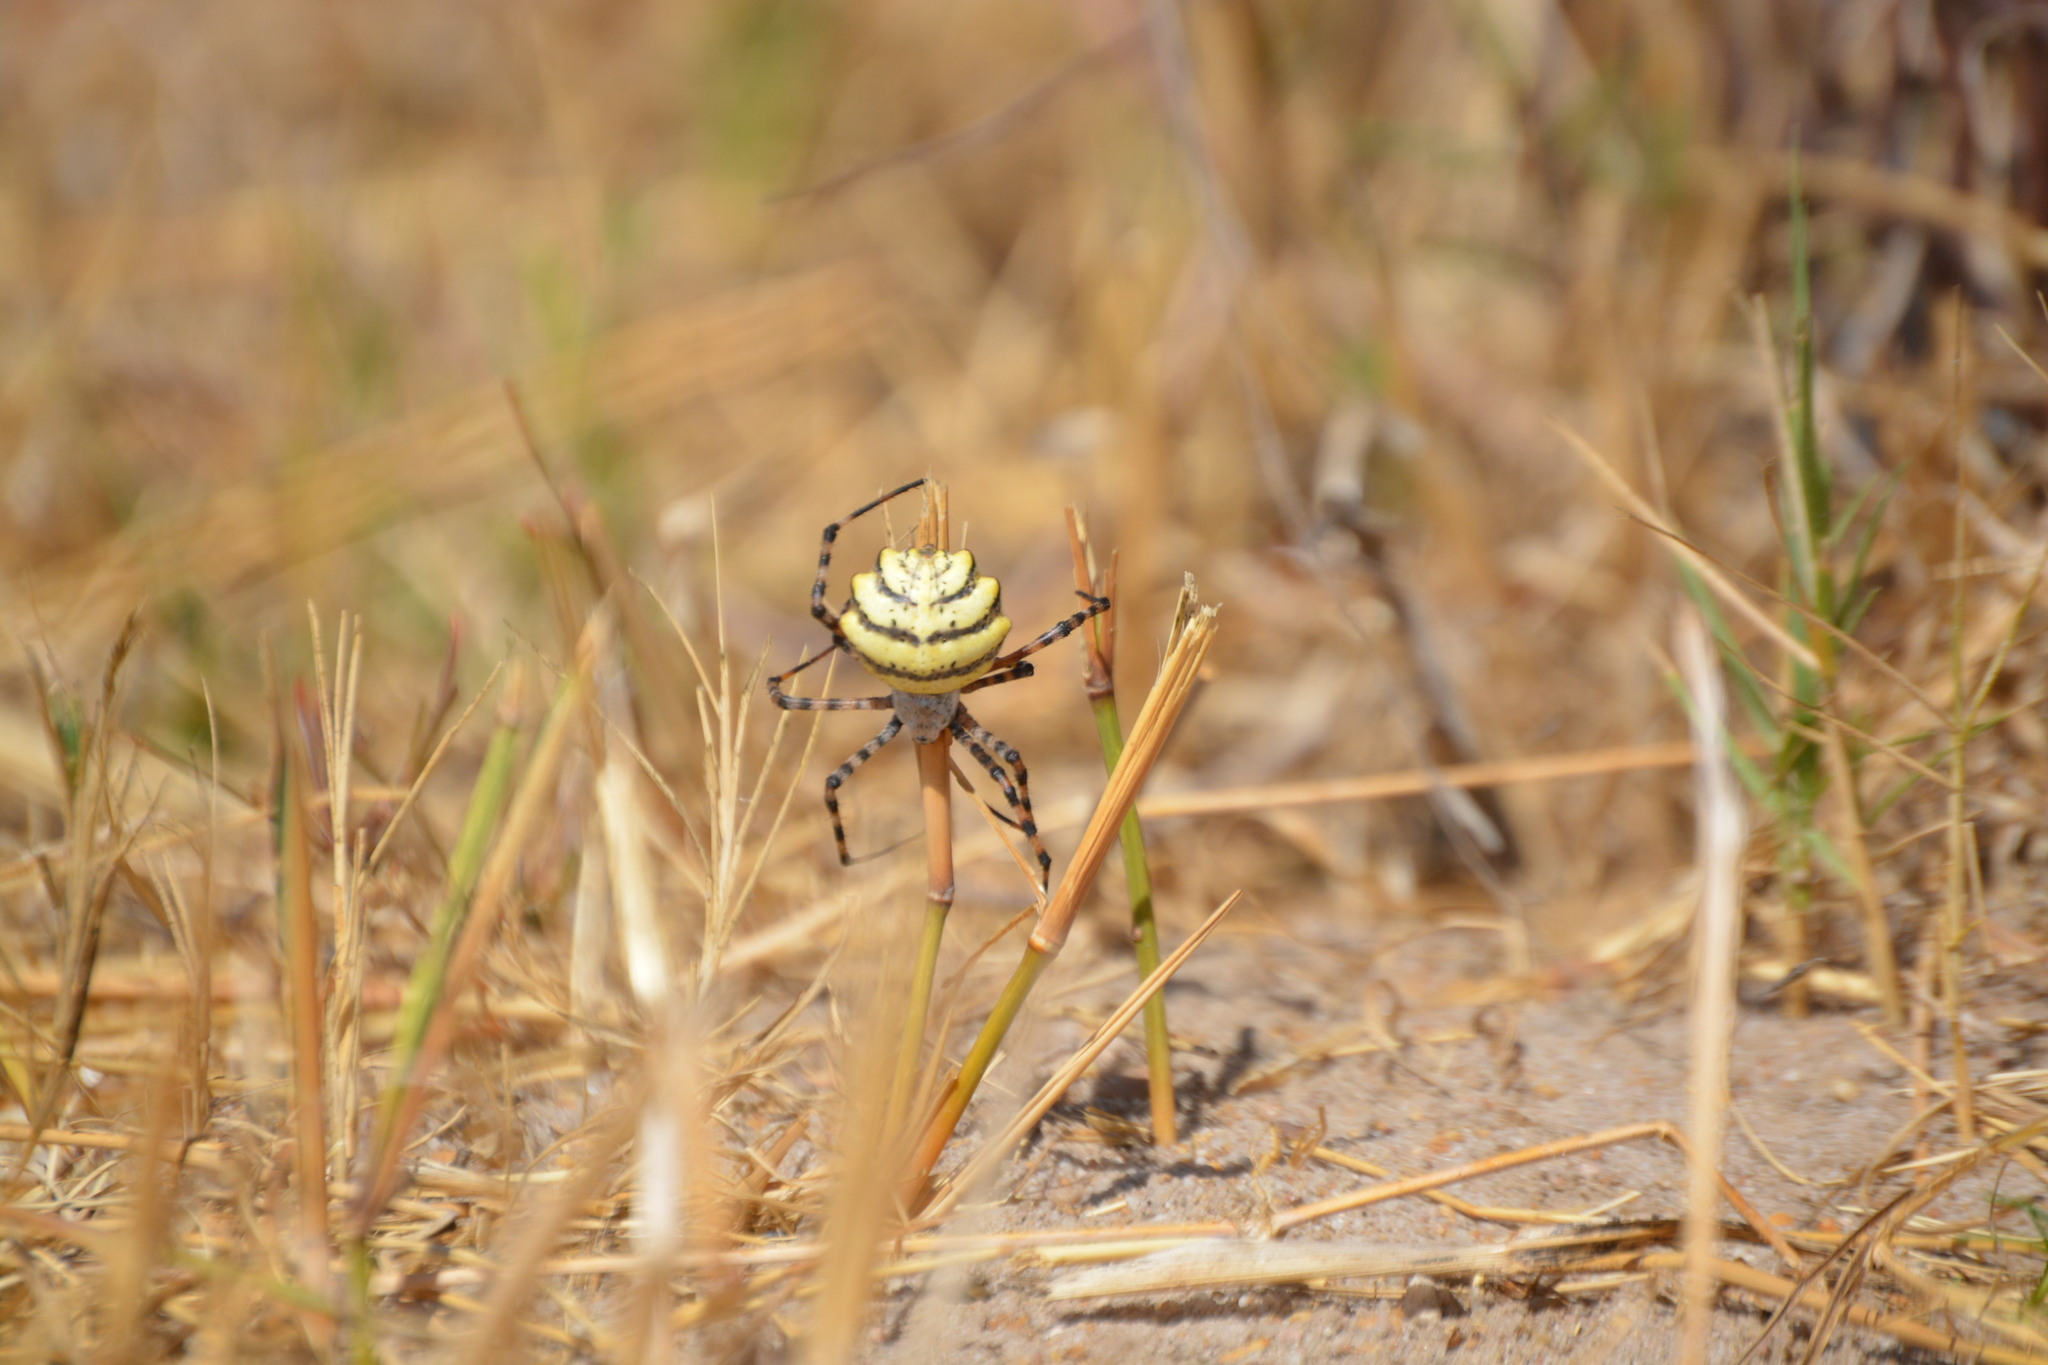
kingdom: Animalia
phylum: Arthropoda
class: Arachnida
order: Araneae
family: Araneidae
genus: Argiope
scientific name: Argiope australis
